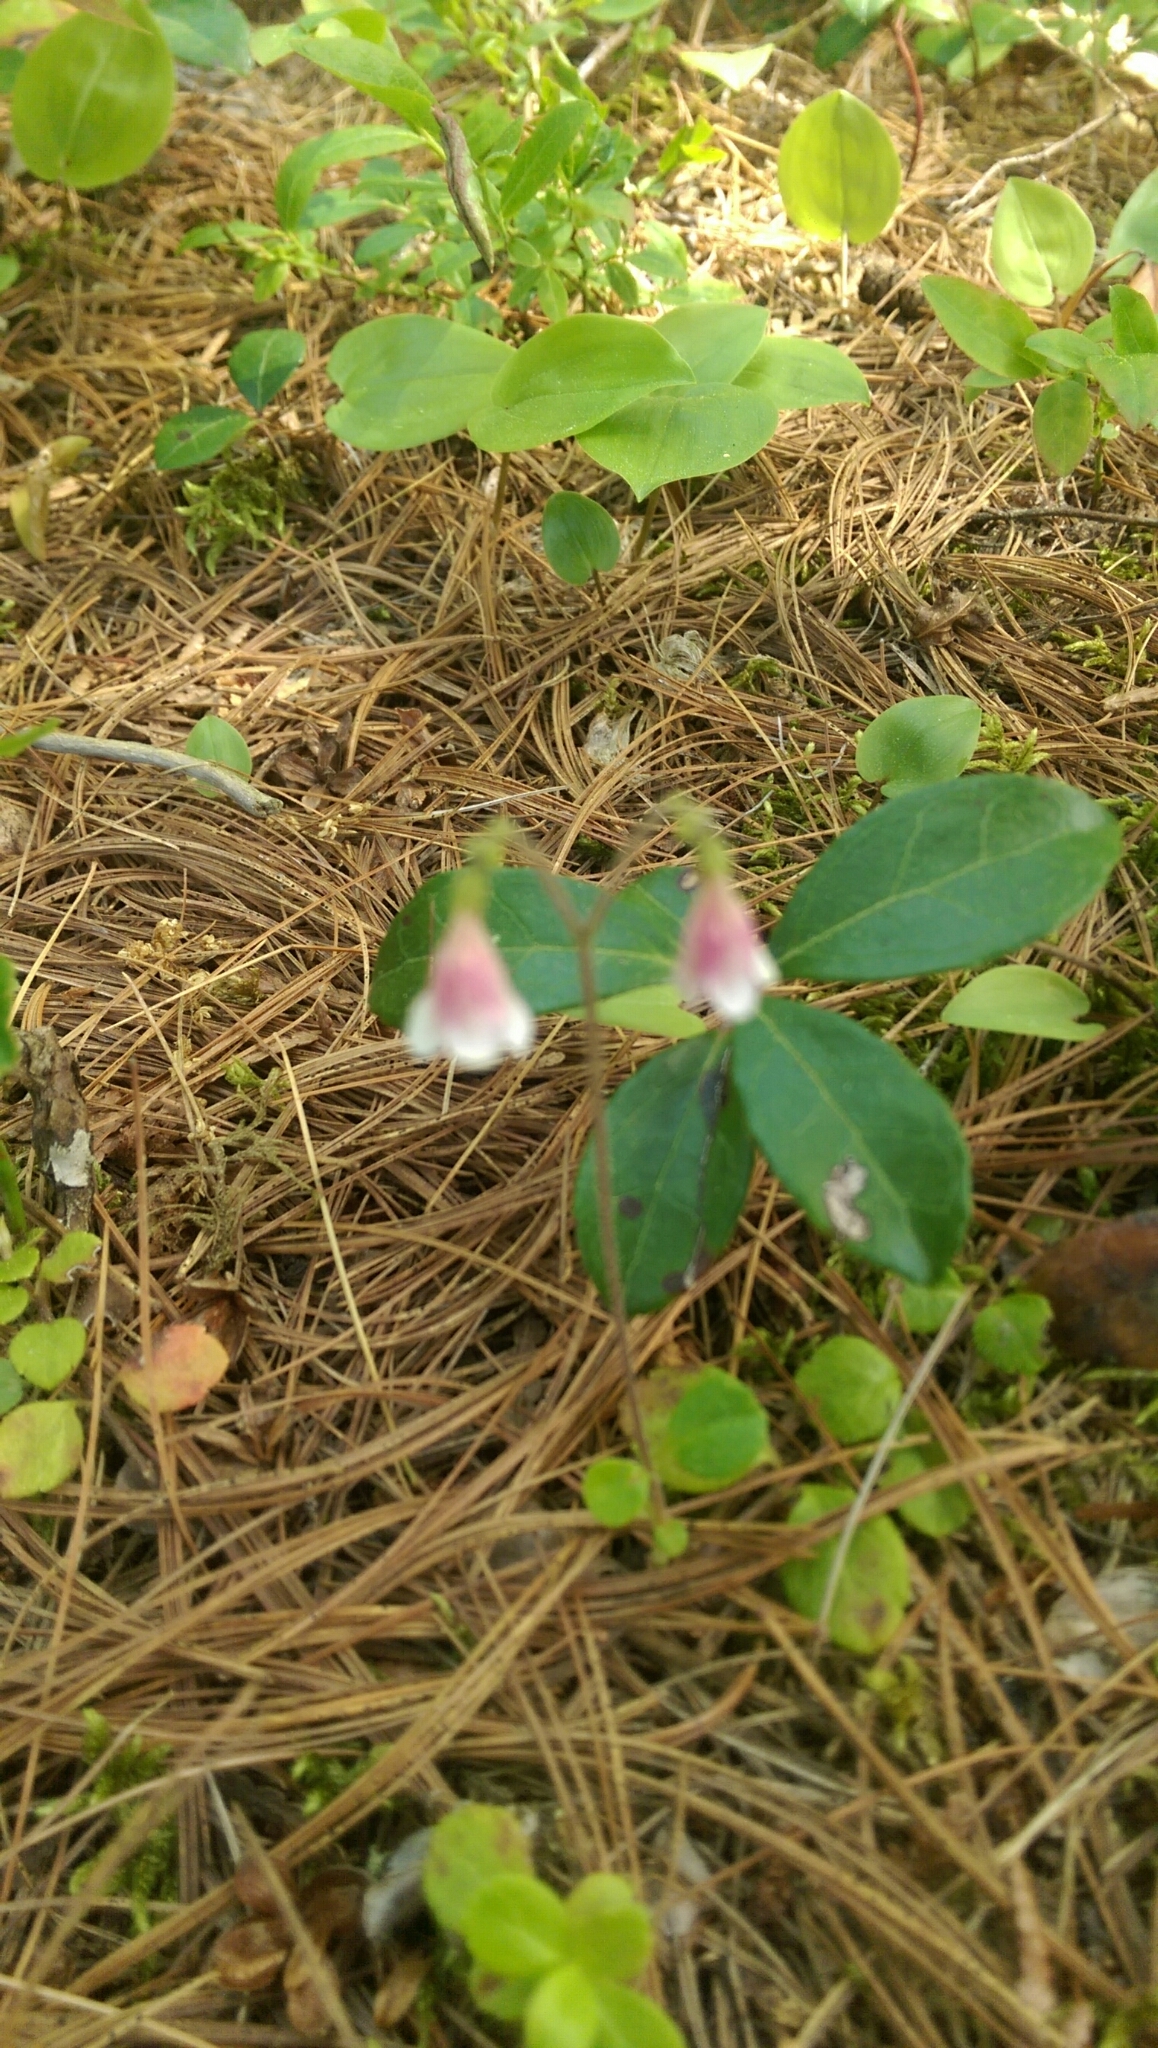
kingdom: Plantae
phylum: Tracheophyta
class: Magnoliopsida
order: Dipsacales
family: Caprifoliaceae
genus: Linnaea
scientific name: Linnaea borealis
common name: Twinflower
